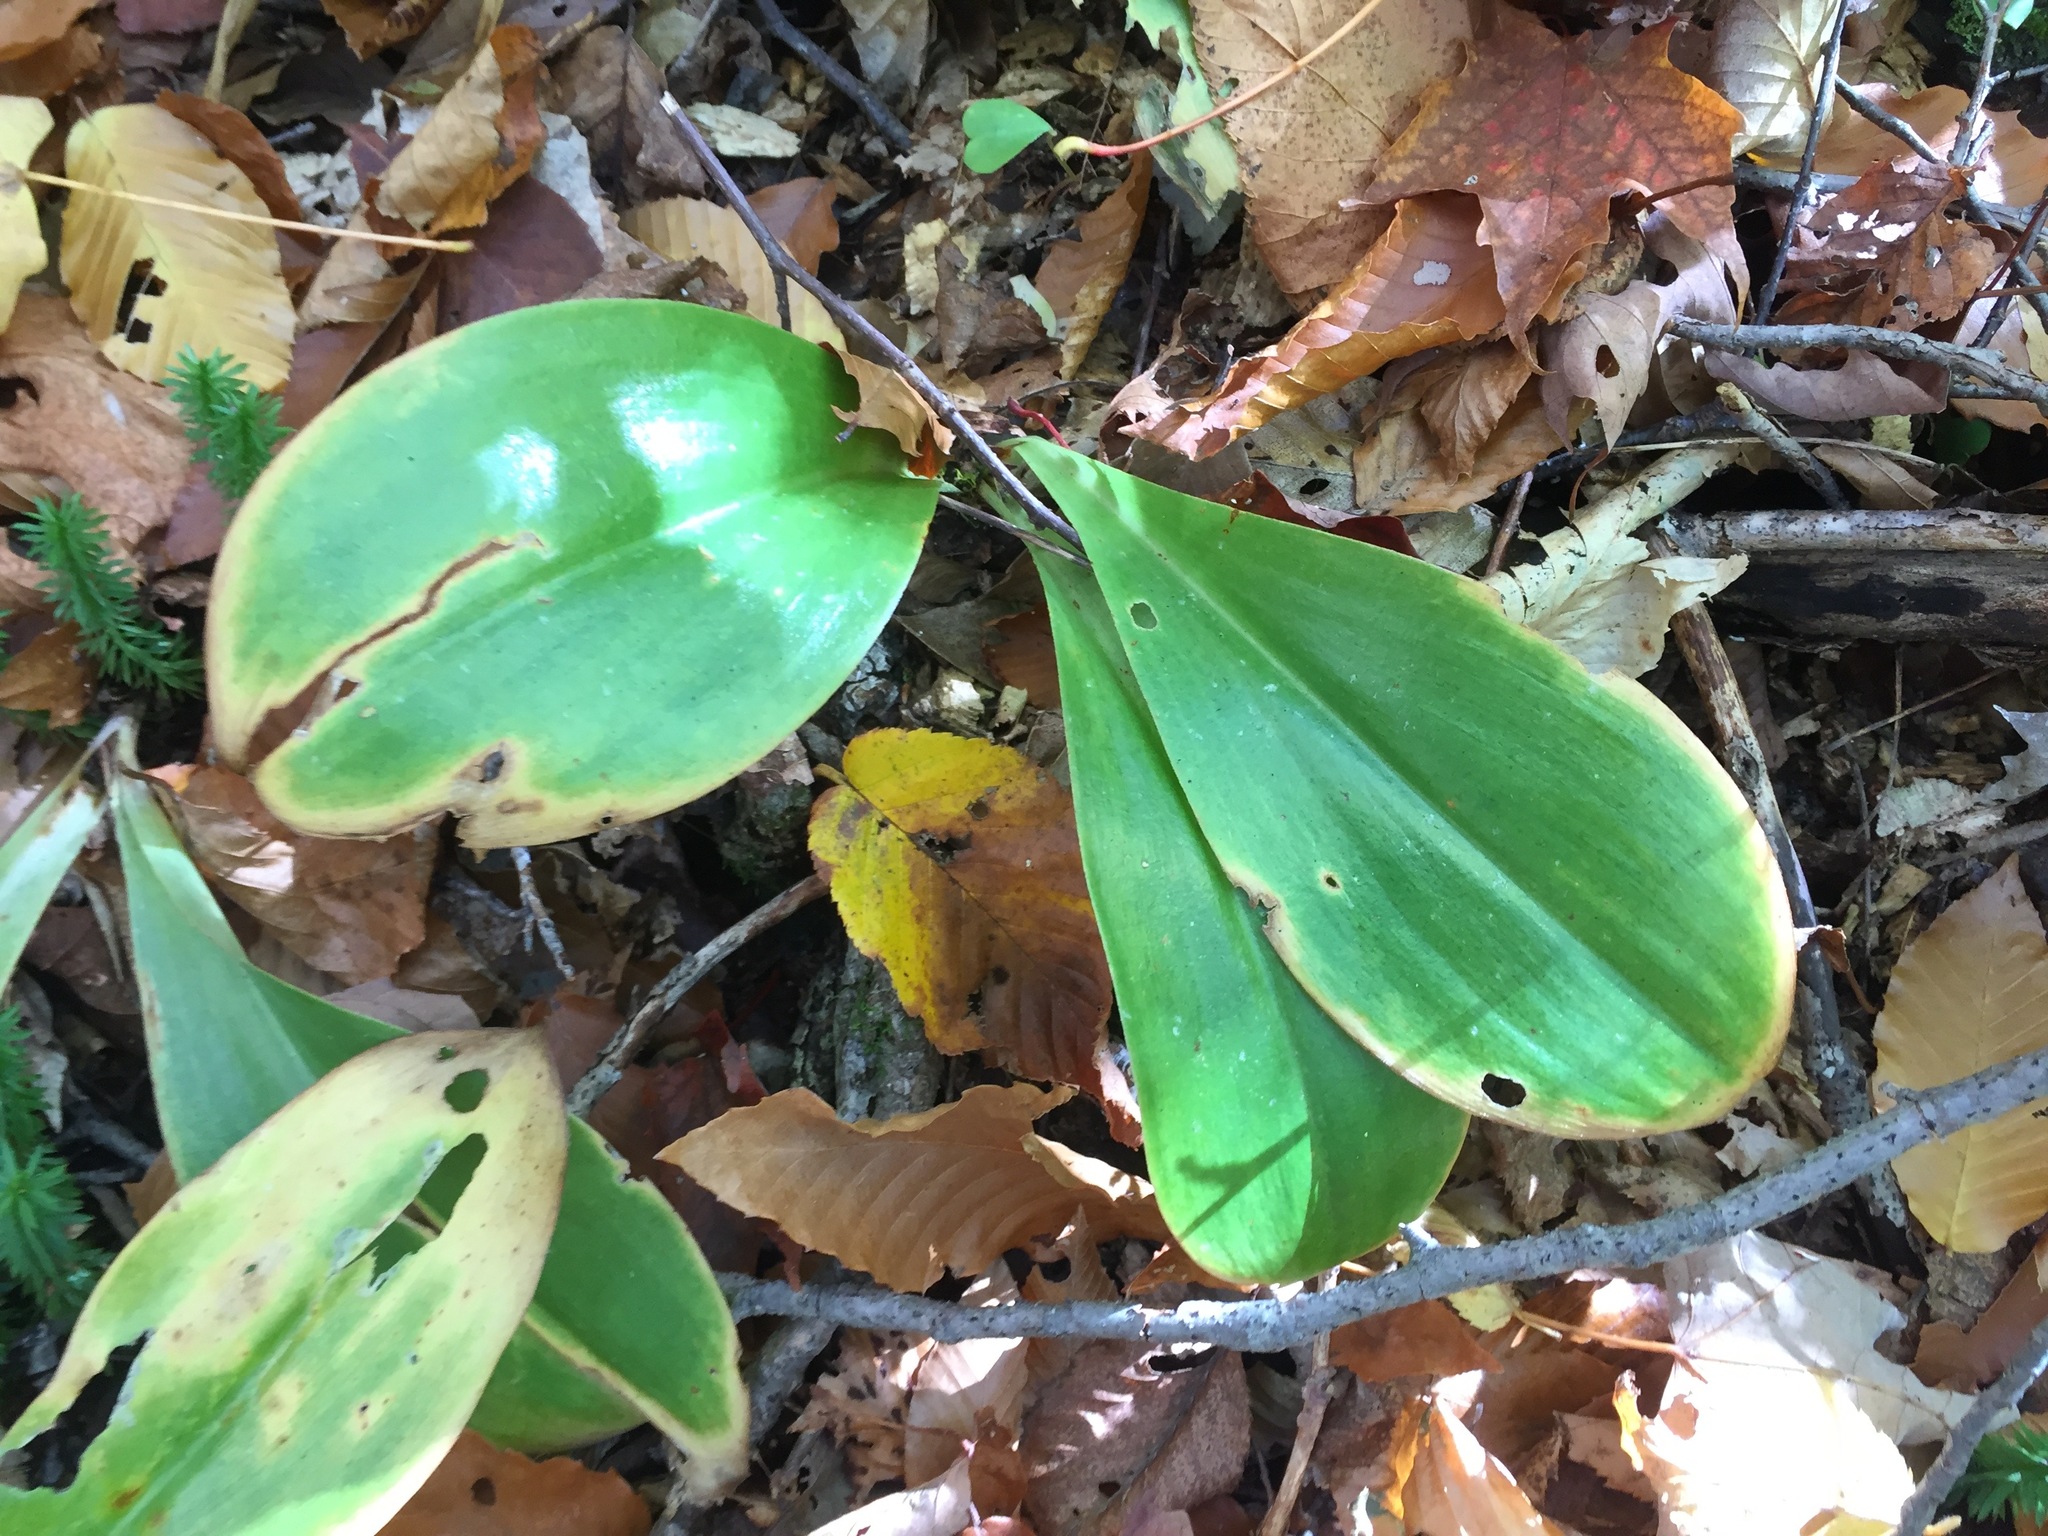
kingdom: Plantae
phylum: Tracheophyta
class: Liliopsida
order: Liliales
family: Liliaceae
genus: Clintonia
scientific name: Clintonia borealis
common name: Yellow clintonia
